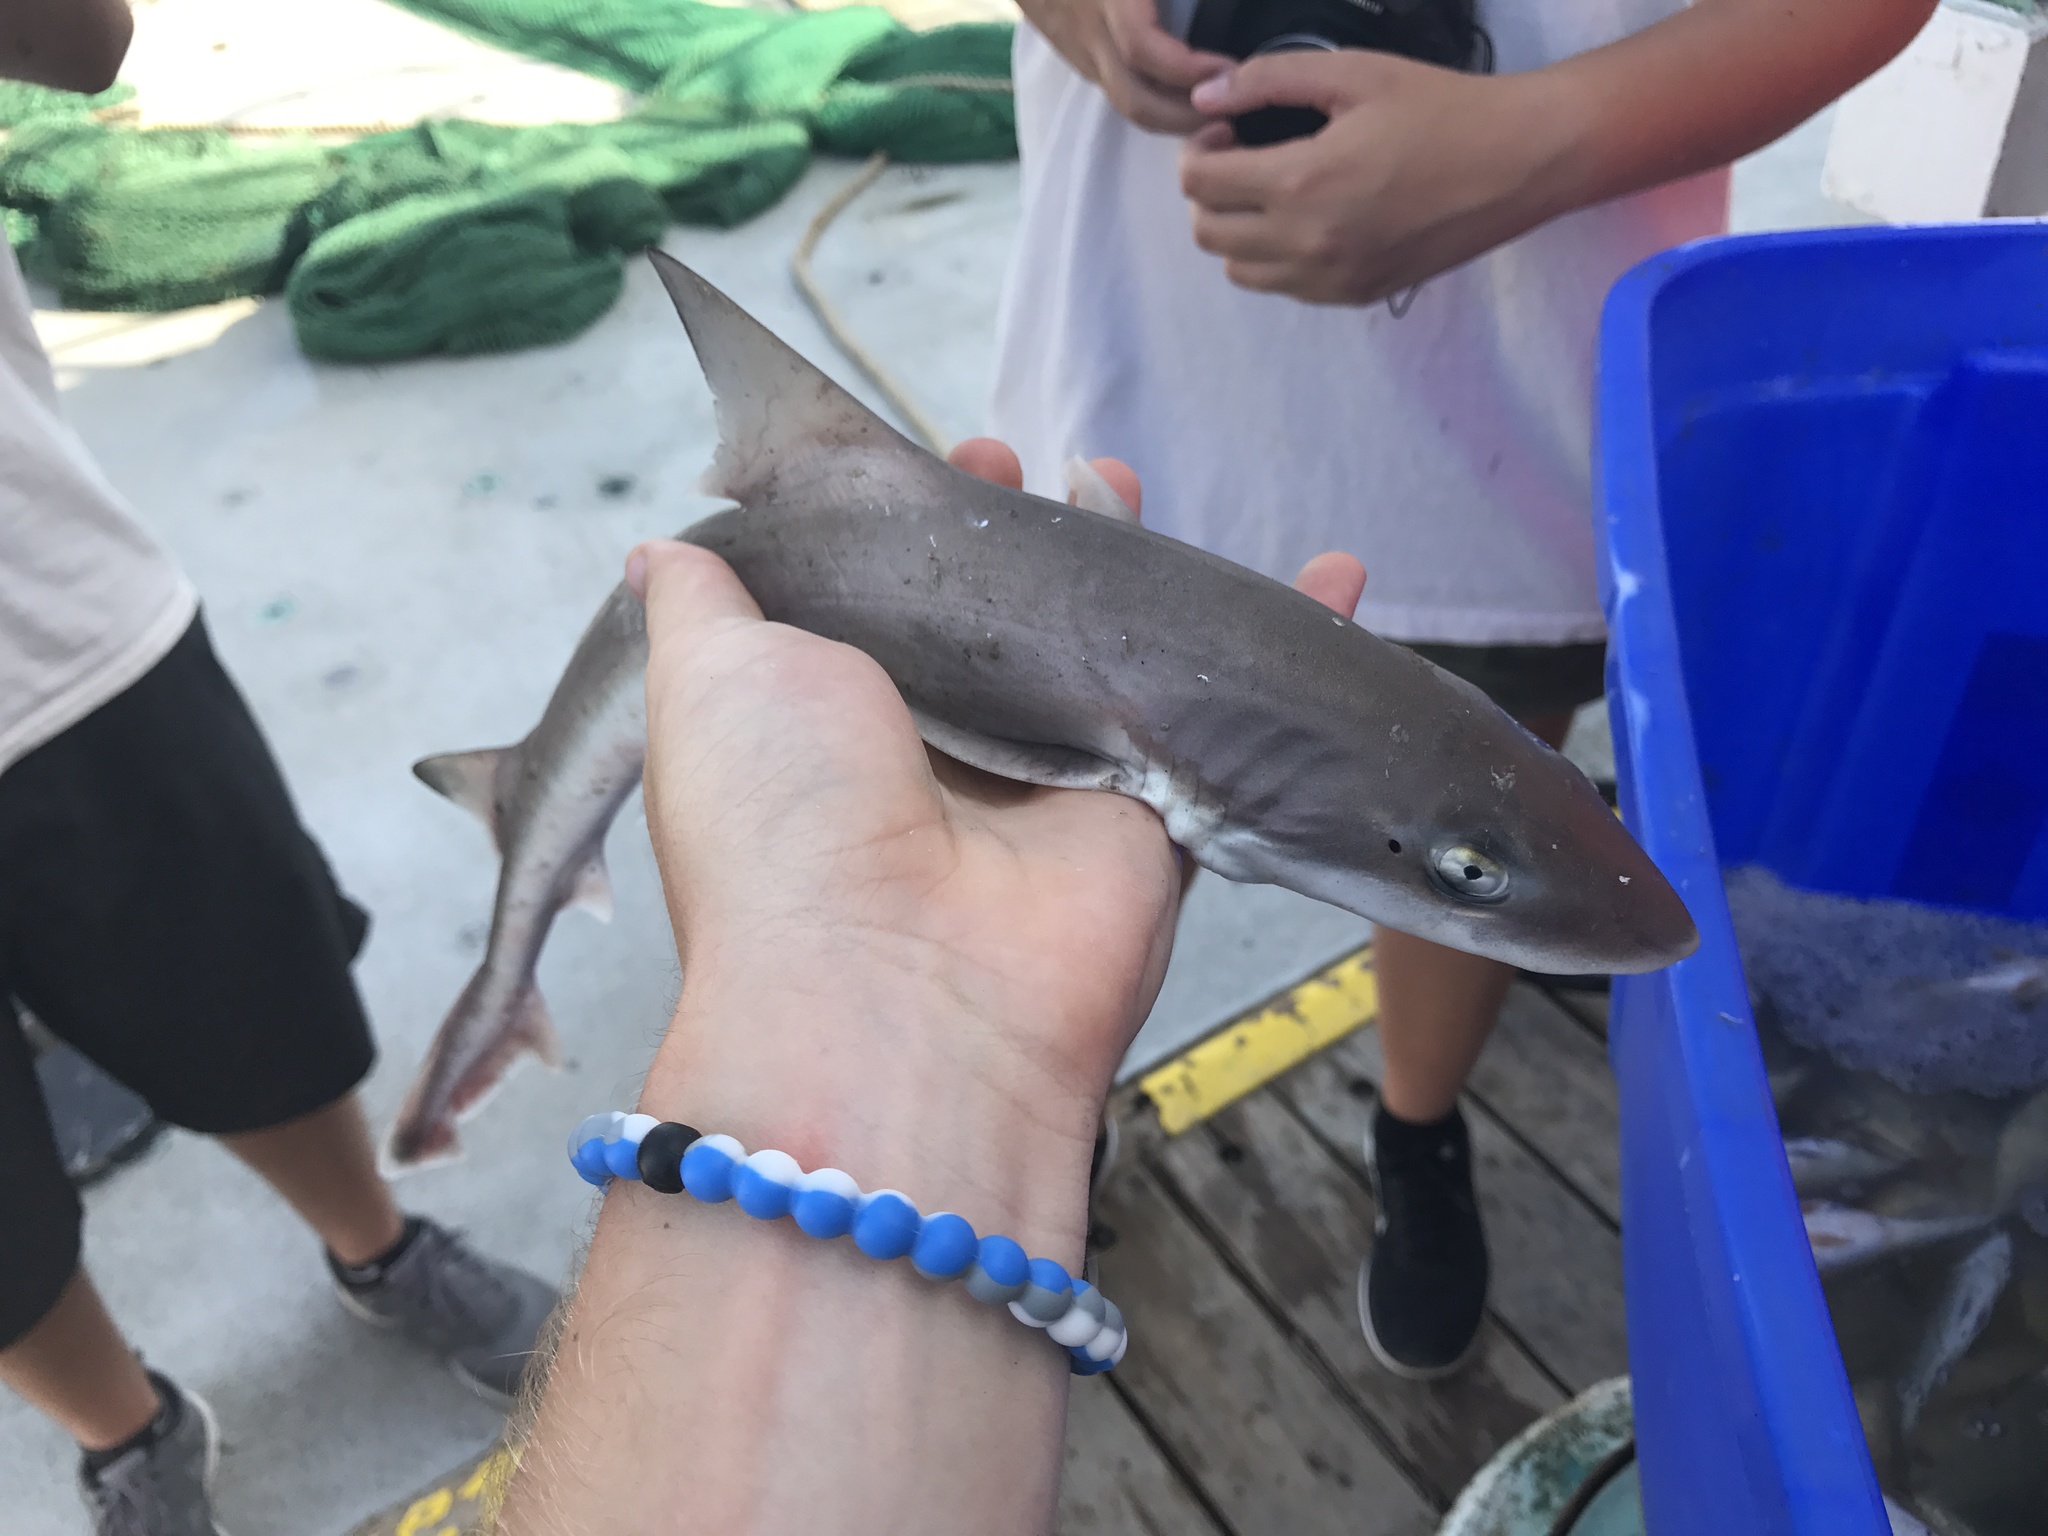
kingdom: Animalia
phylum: Chordata
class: Elasmobranchii
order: Carcharhiniformes
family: Triakidae
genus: Mustelus
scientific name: Mustelus canis
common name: Smooth dogfish
